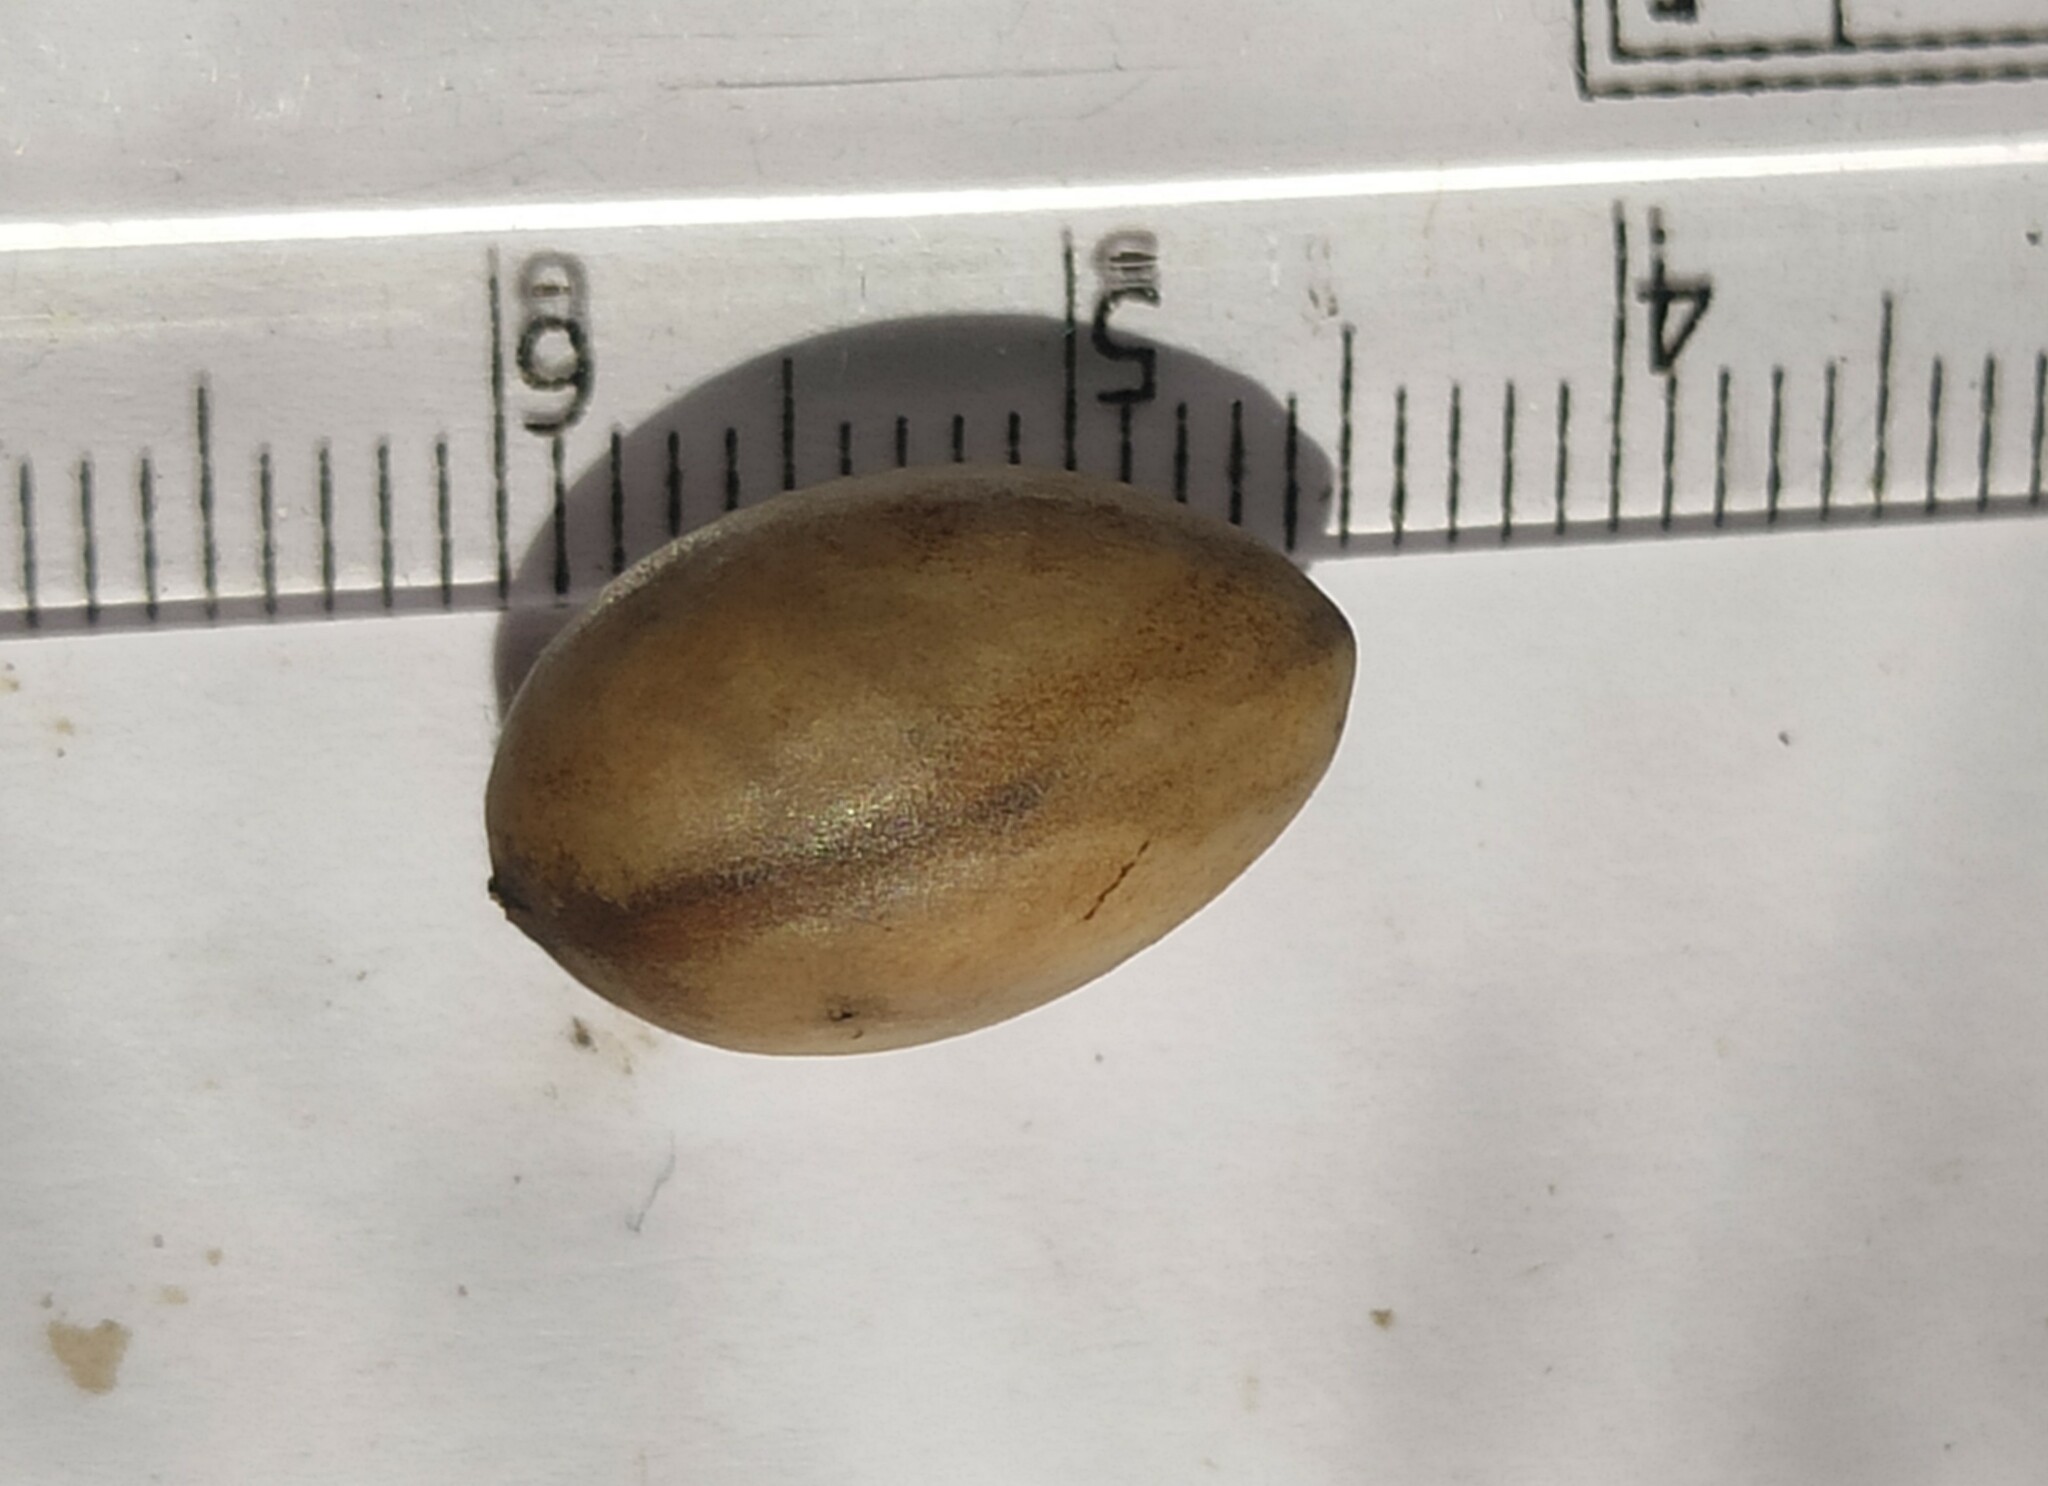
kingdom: Plantae
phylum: Tracheophyta
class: Magnoliopsida
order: Laurales
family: Lauraceae
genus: Litsea
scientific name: Litsea stocksii
